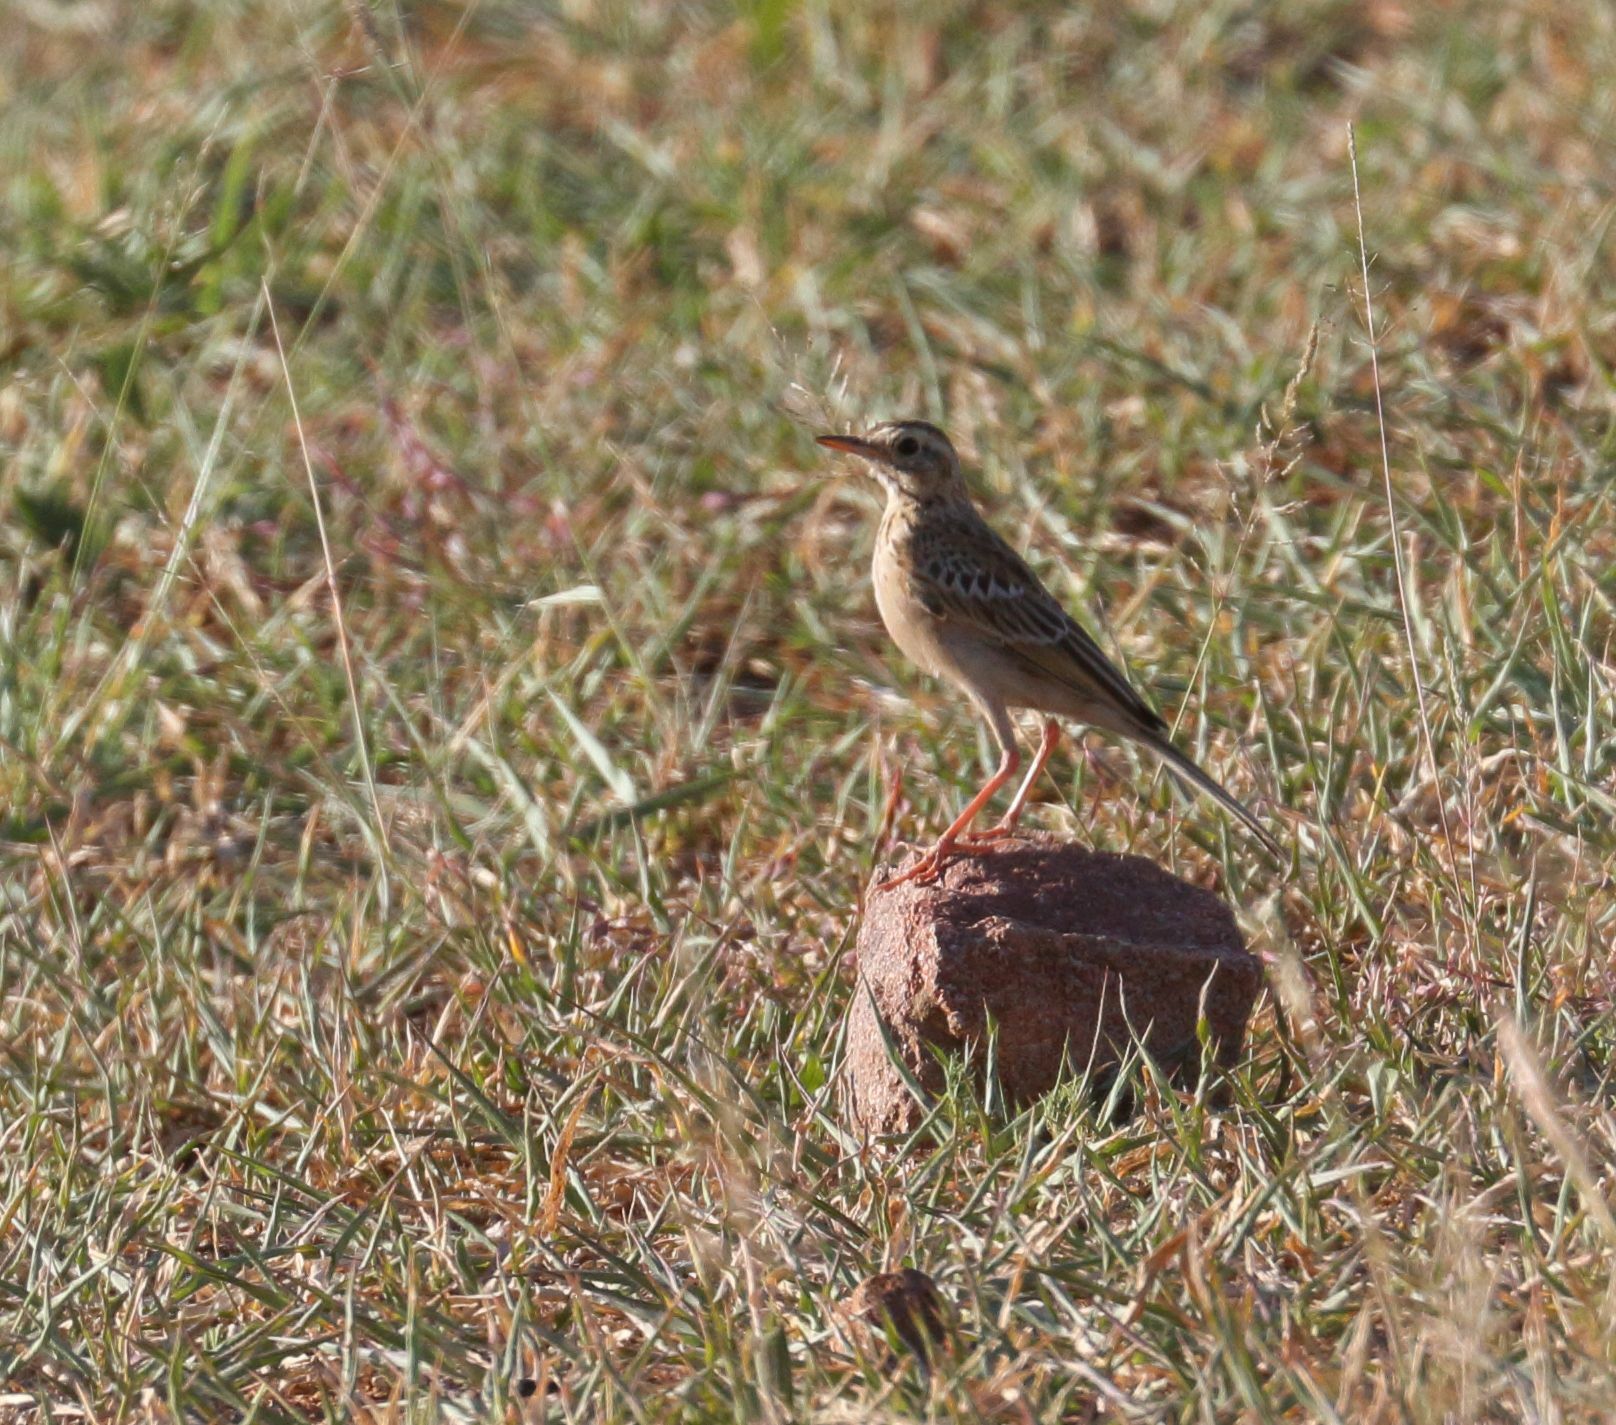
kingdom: Animalia
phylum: Chordata
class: Aves
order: Passeriformes
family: Motacillidae
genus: Anthus
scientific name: Anthus cinnamomeus
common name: African pipit
